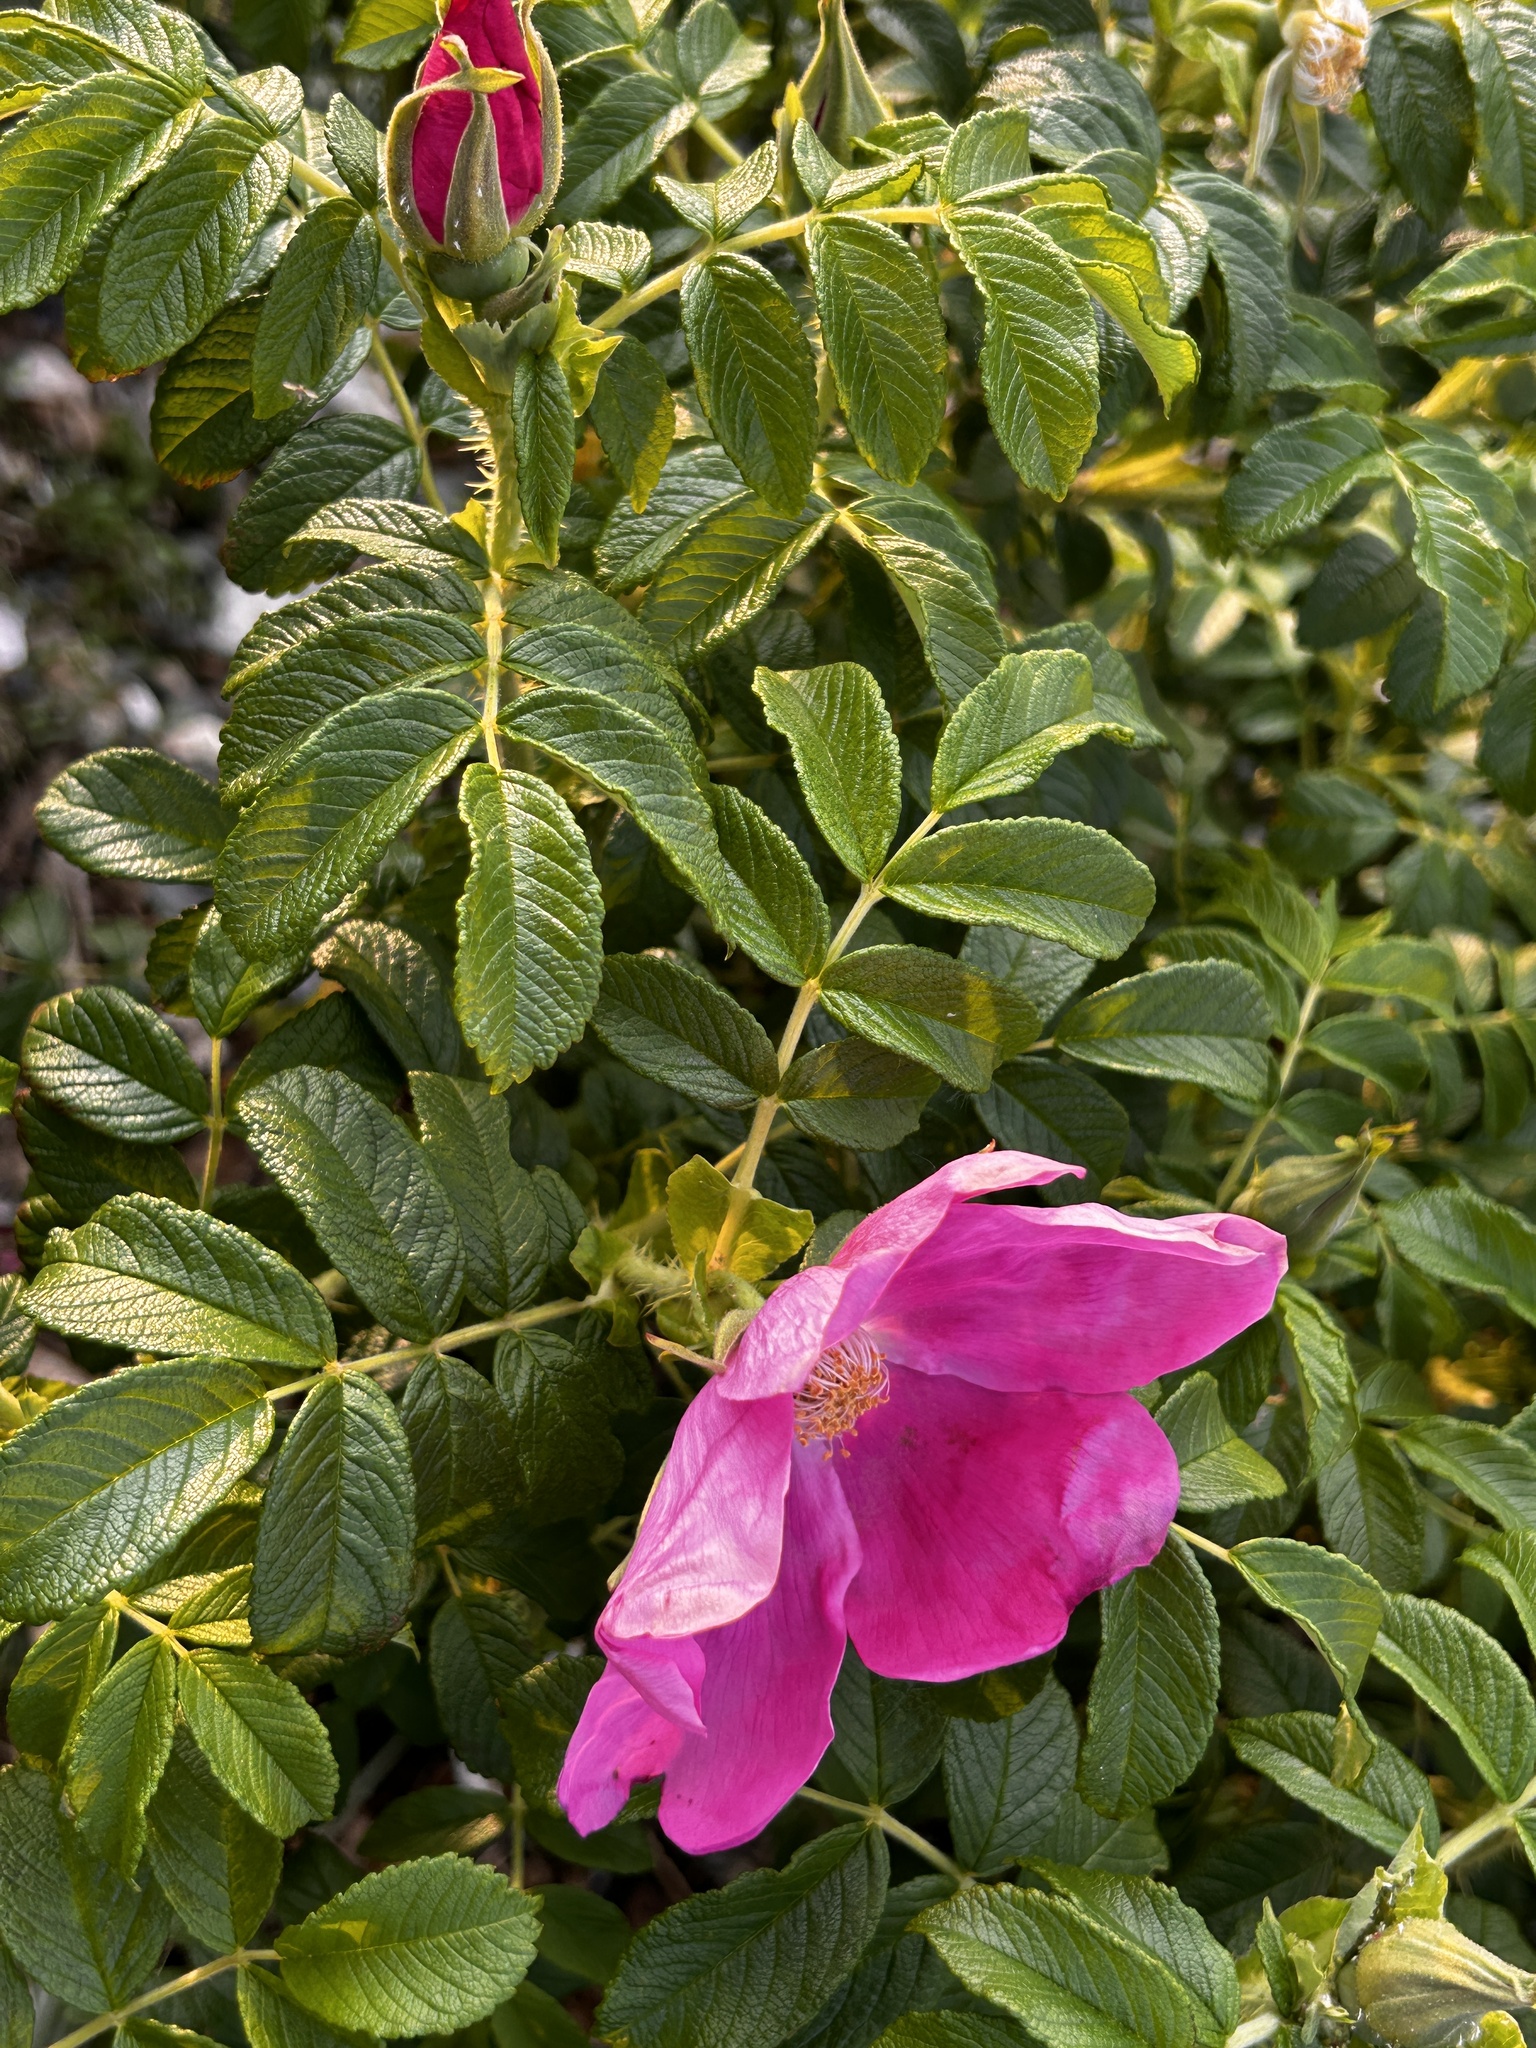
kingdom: Plantae
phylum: Tracheophyta
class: Magnoliopsida
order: Rosales
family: Rosaceae
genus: Rosa
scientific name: Rosa rugosa
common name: Japanese rose
